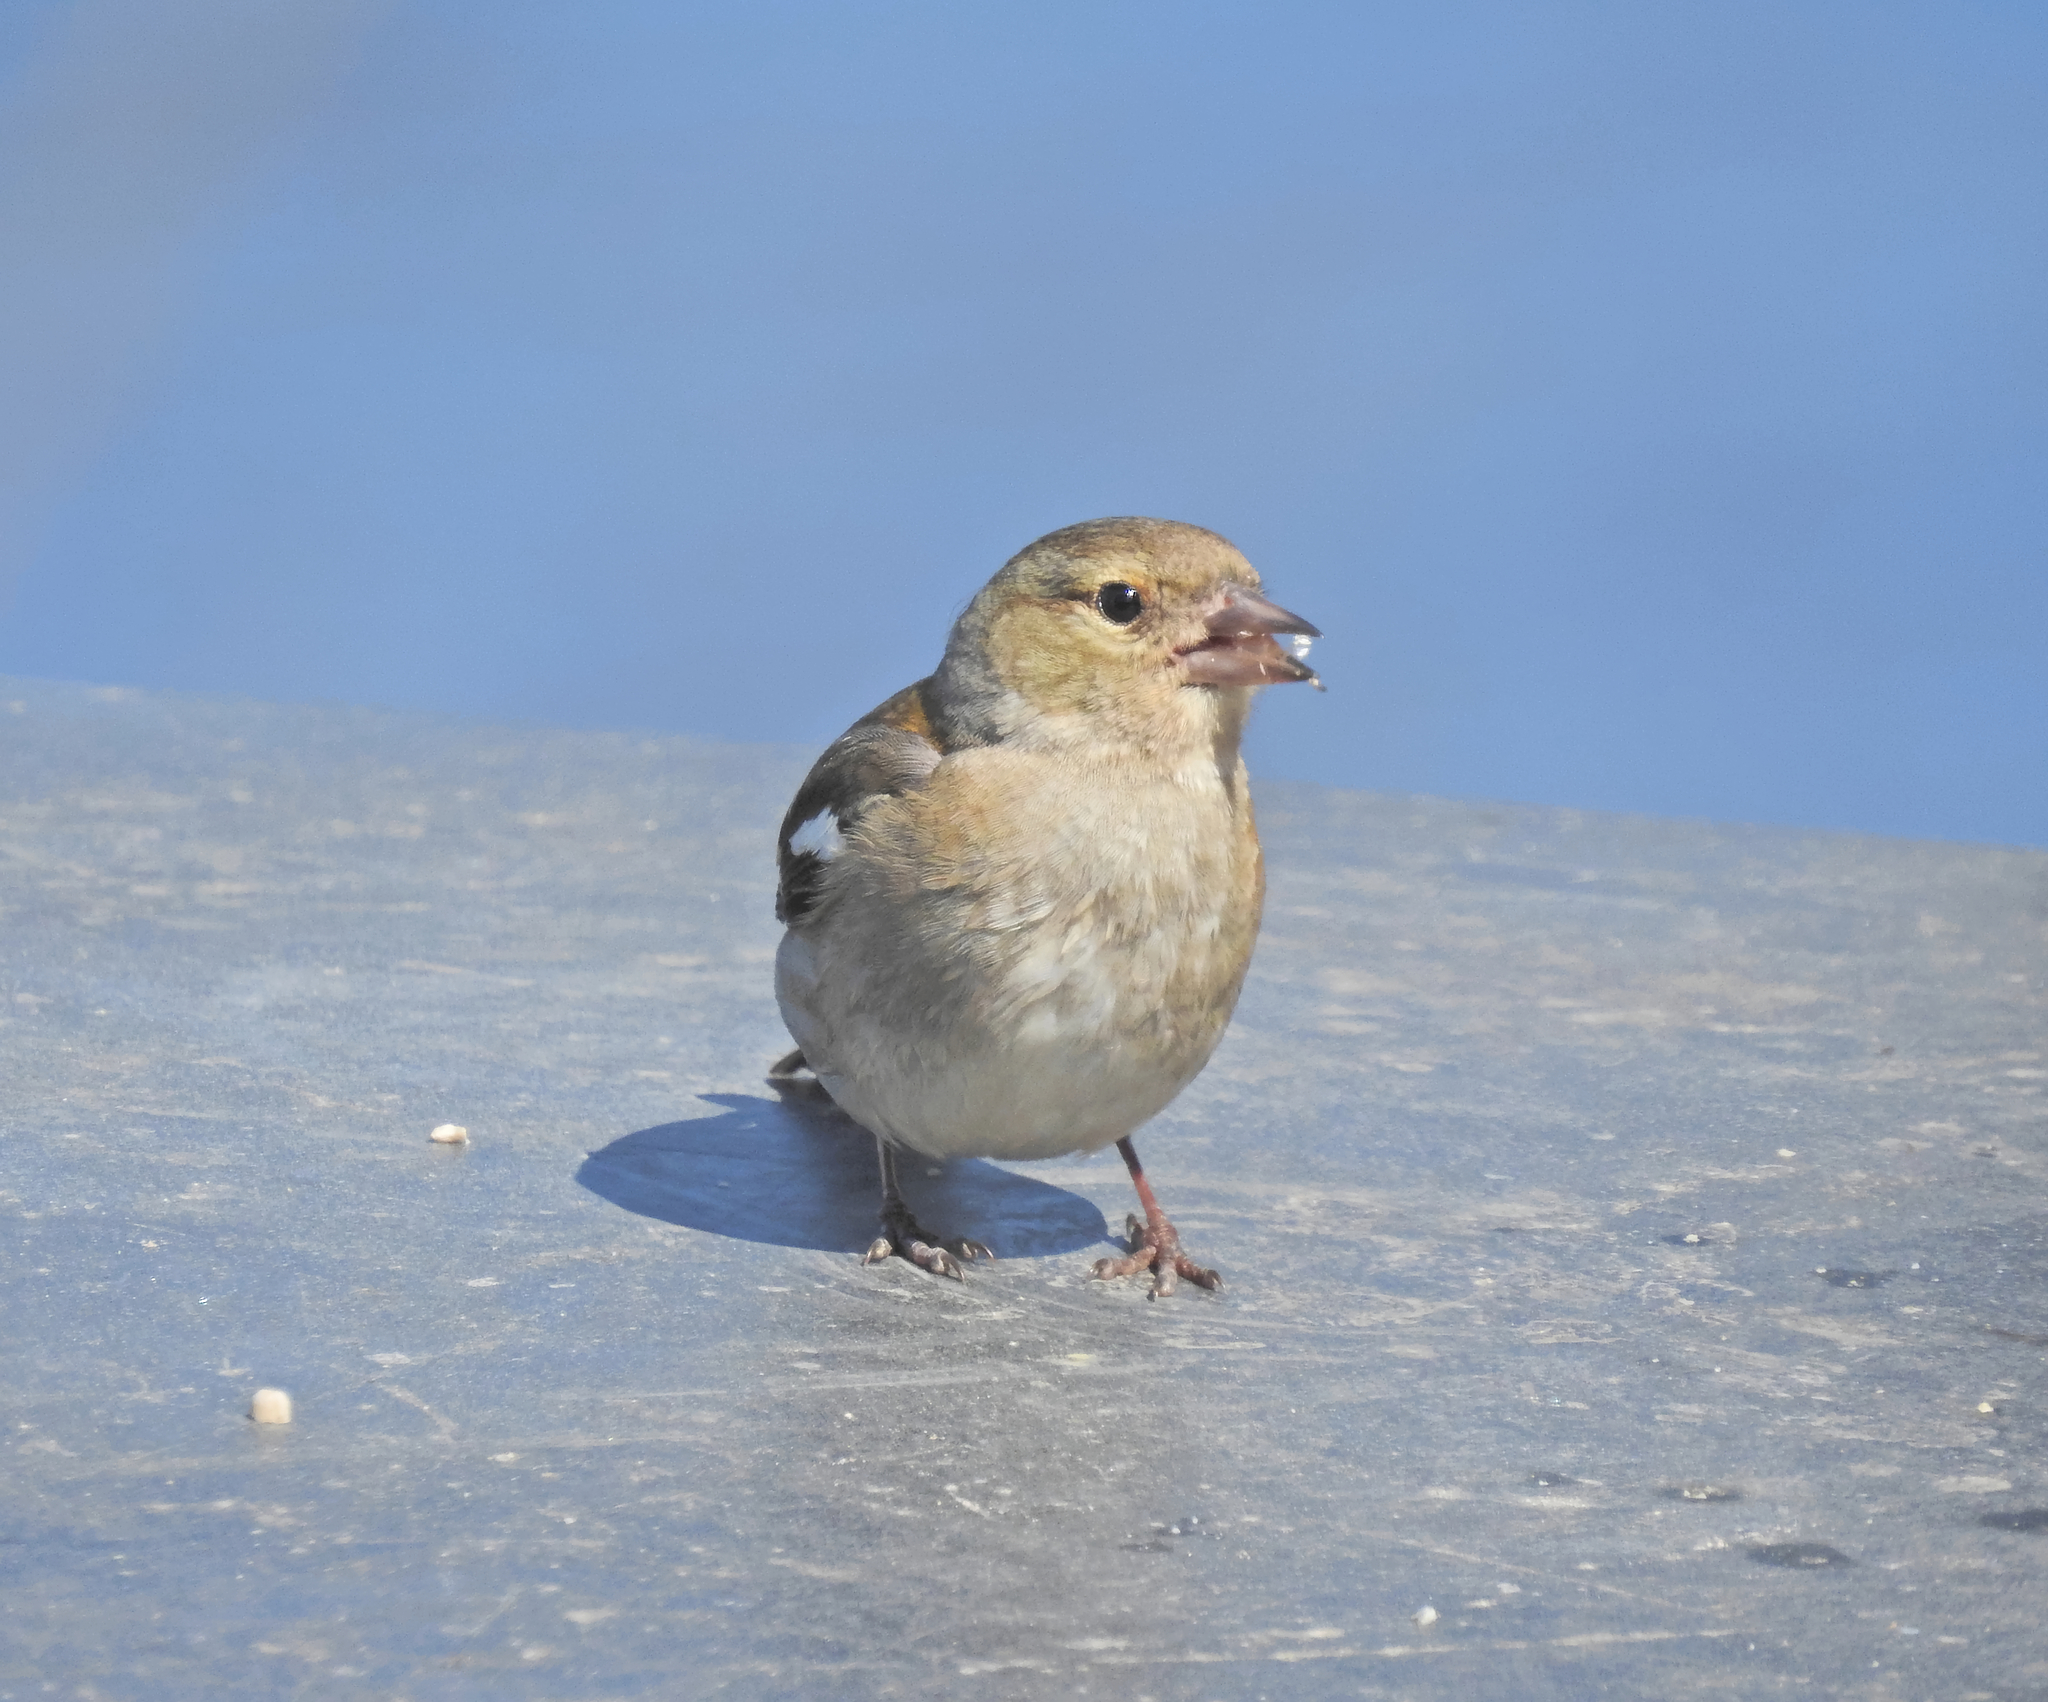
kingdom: Animalia
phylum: Chordata
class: Aves
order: Passeriformes
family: Fringillidae
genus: Fringilla
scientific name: Fringilla coelebs
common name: Common chaffinch
